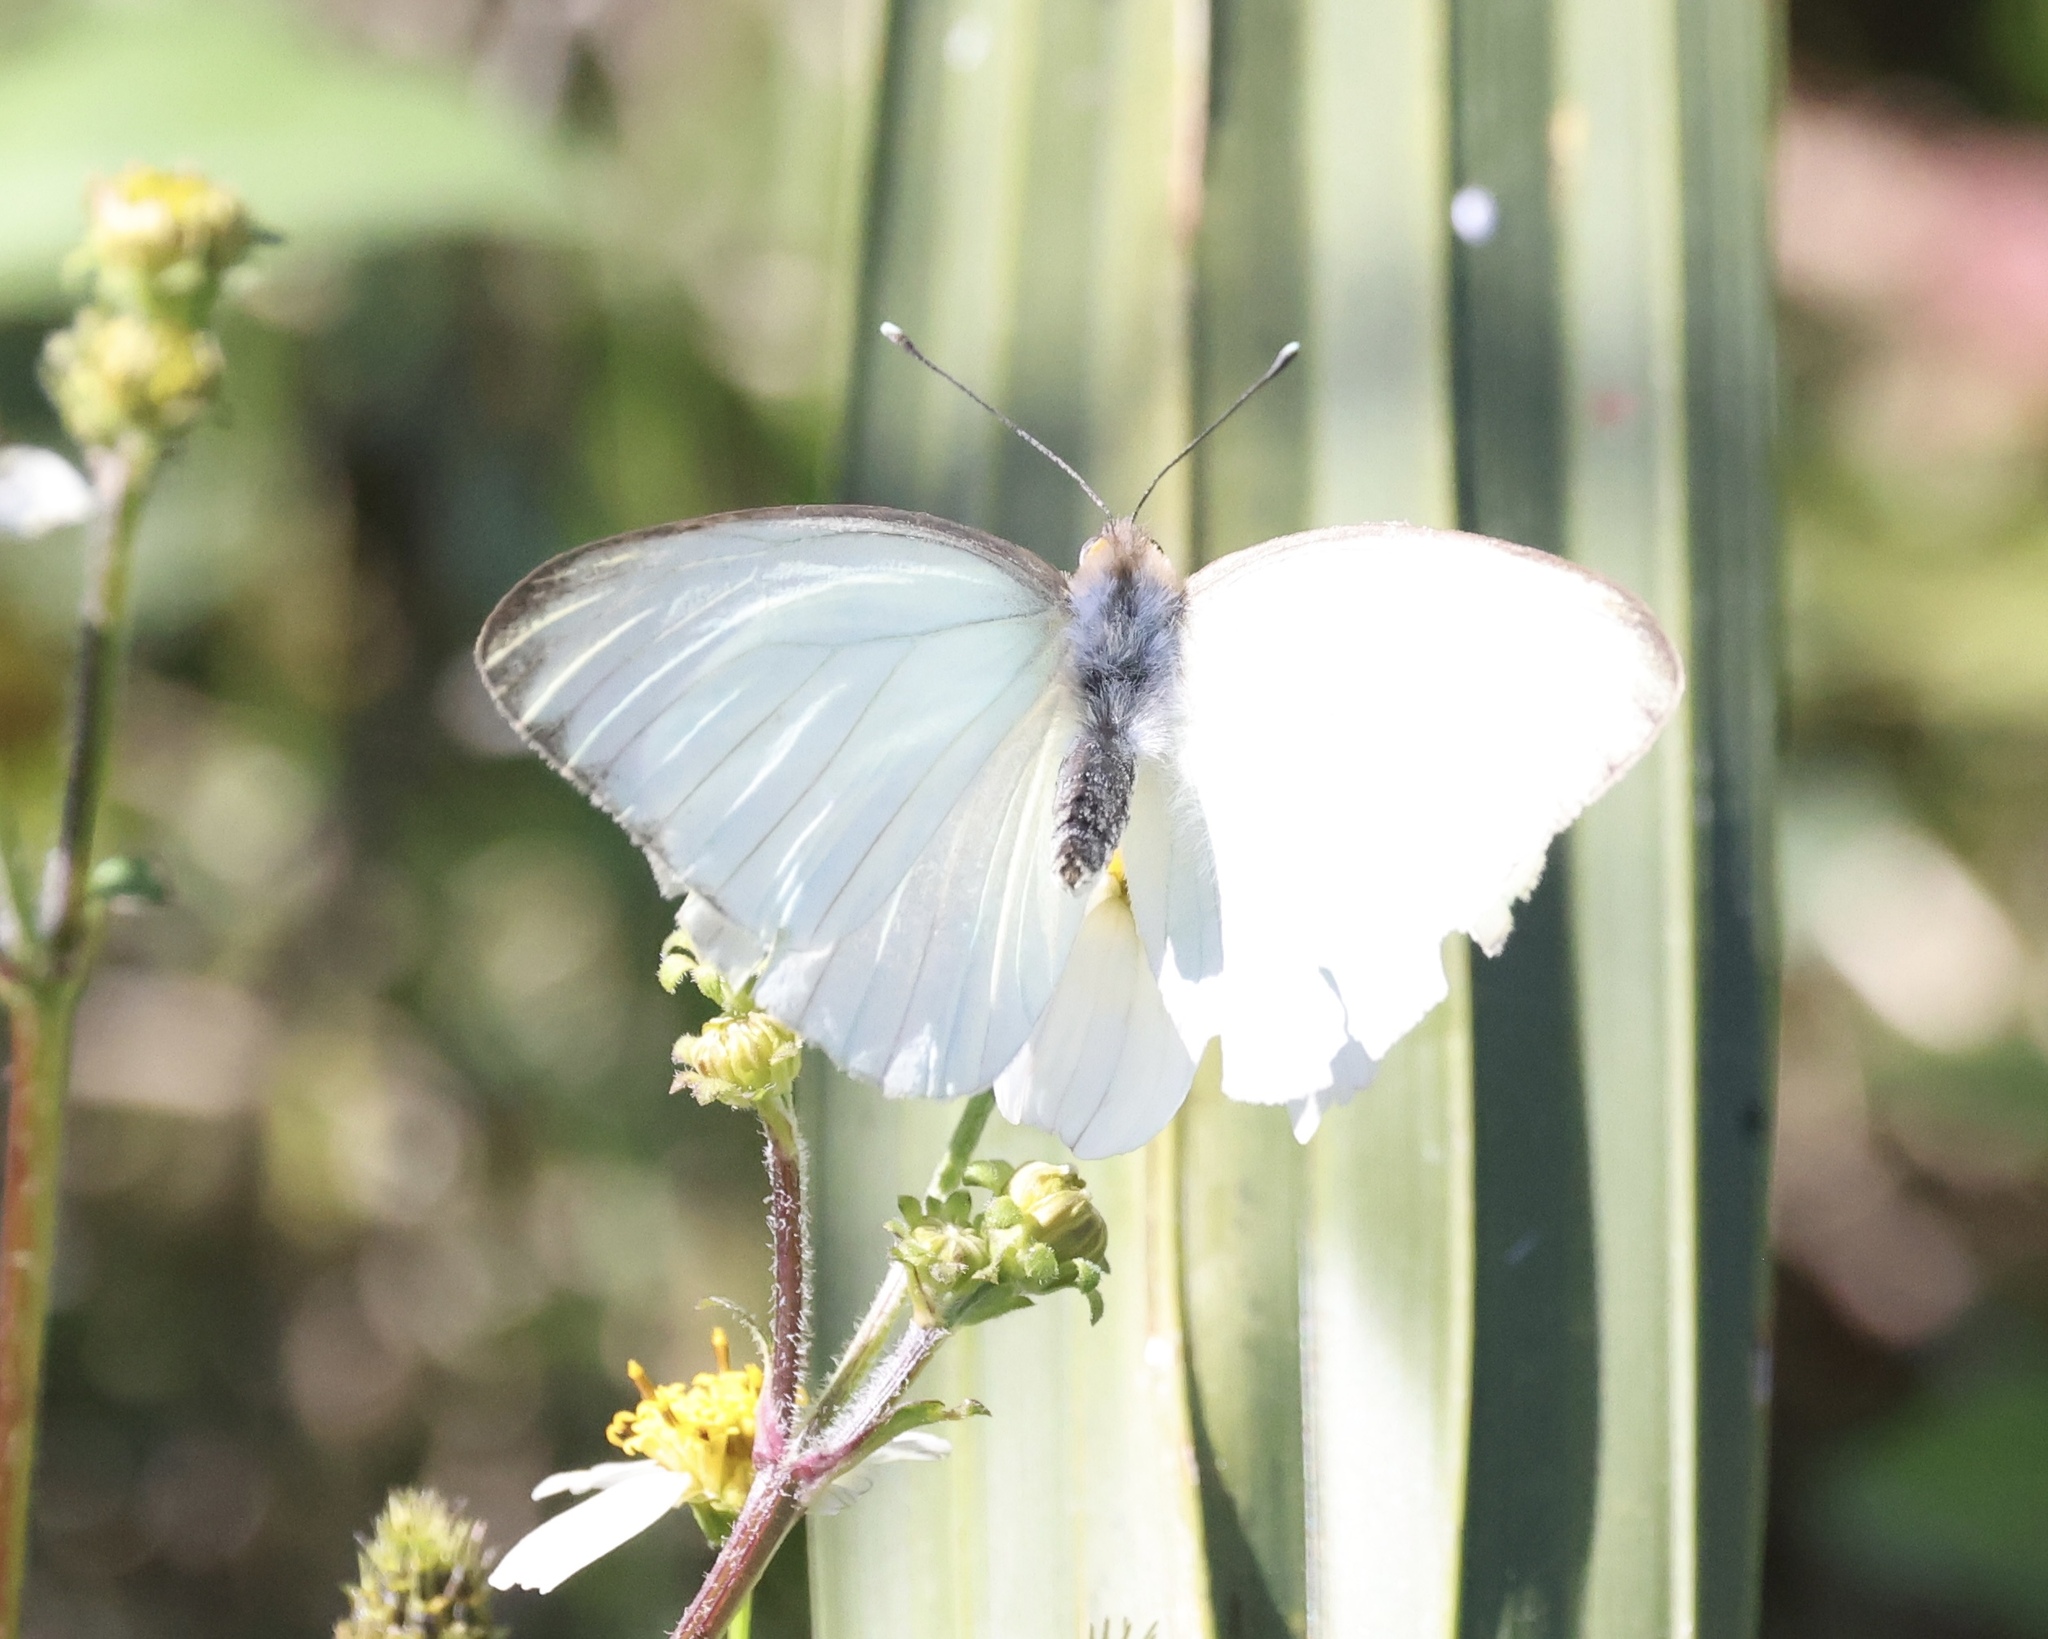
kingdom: Animalia
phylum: Arthropoda
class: Insecta
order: Lepidoptera
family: Pieridae
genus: Ascia
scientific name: Ascia monuste
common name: Great southern white
